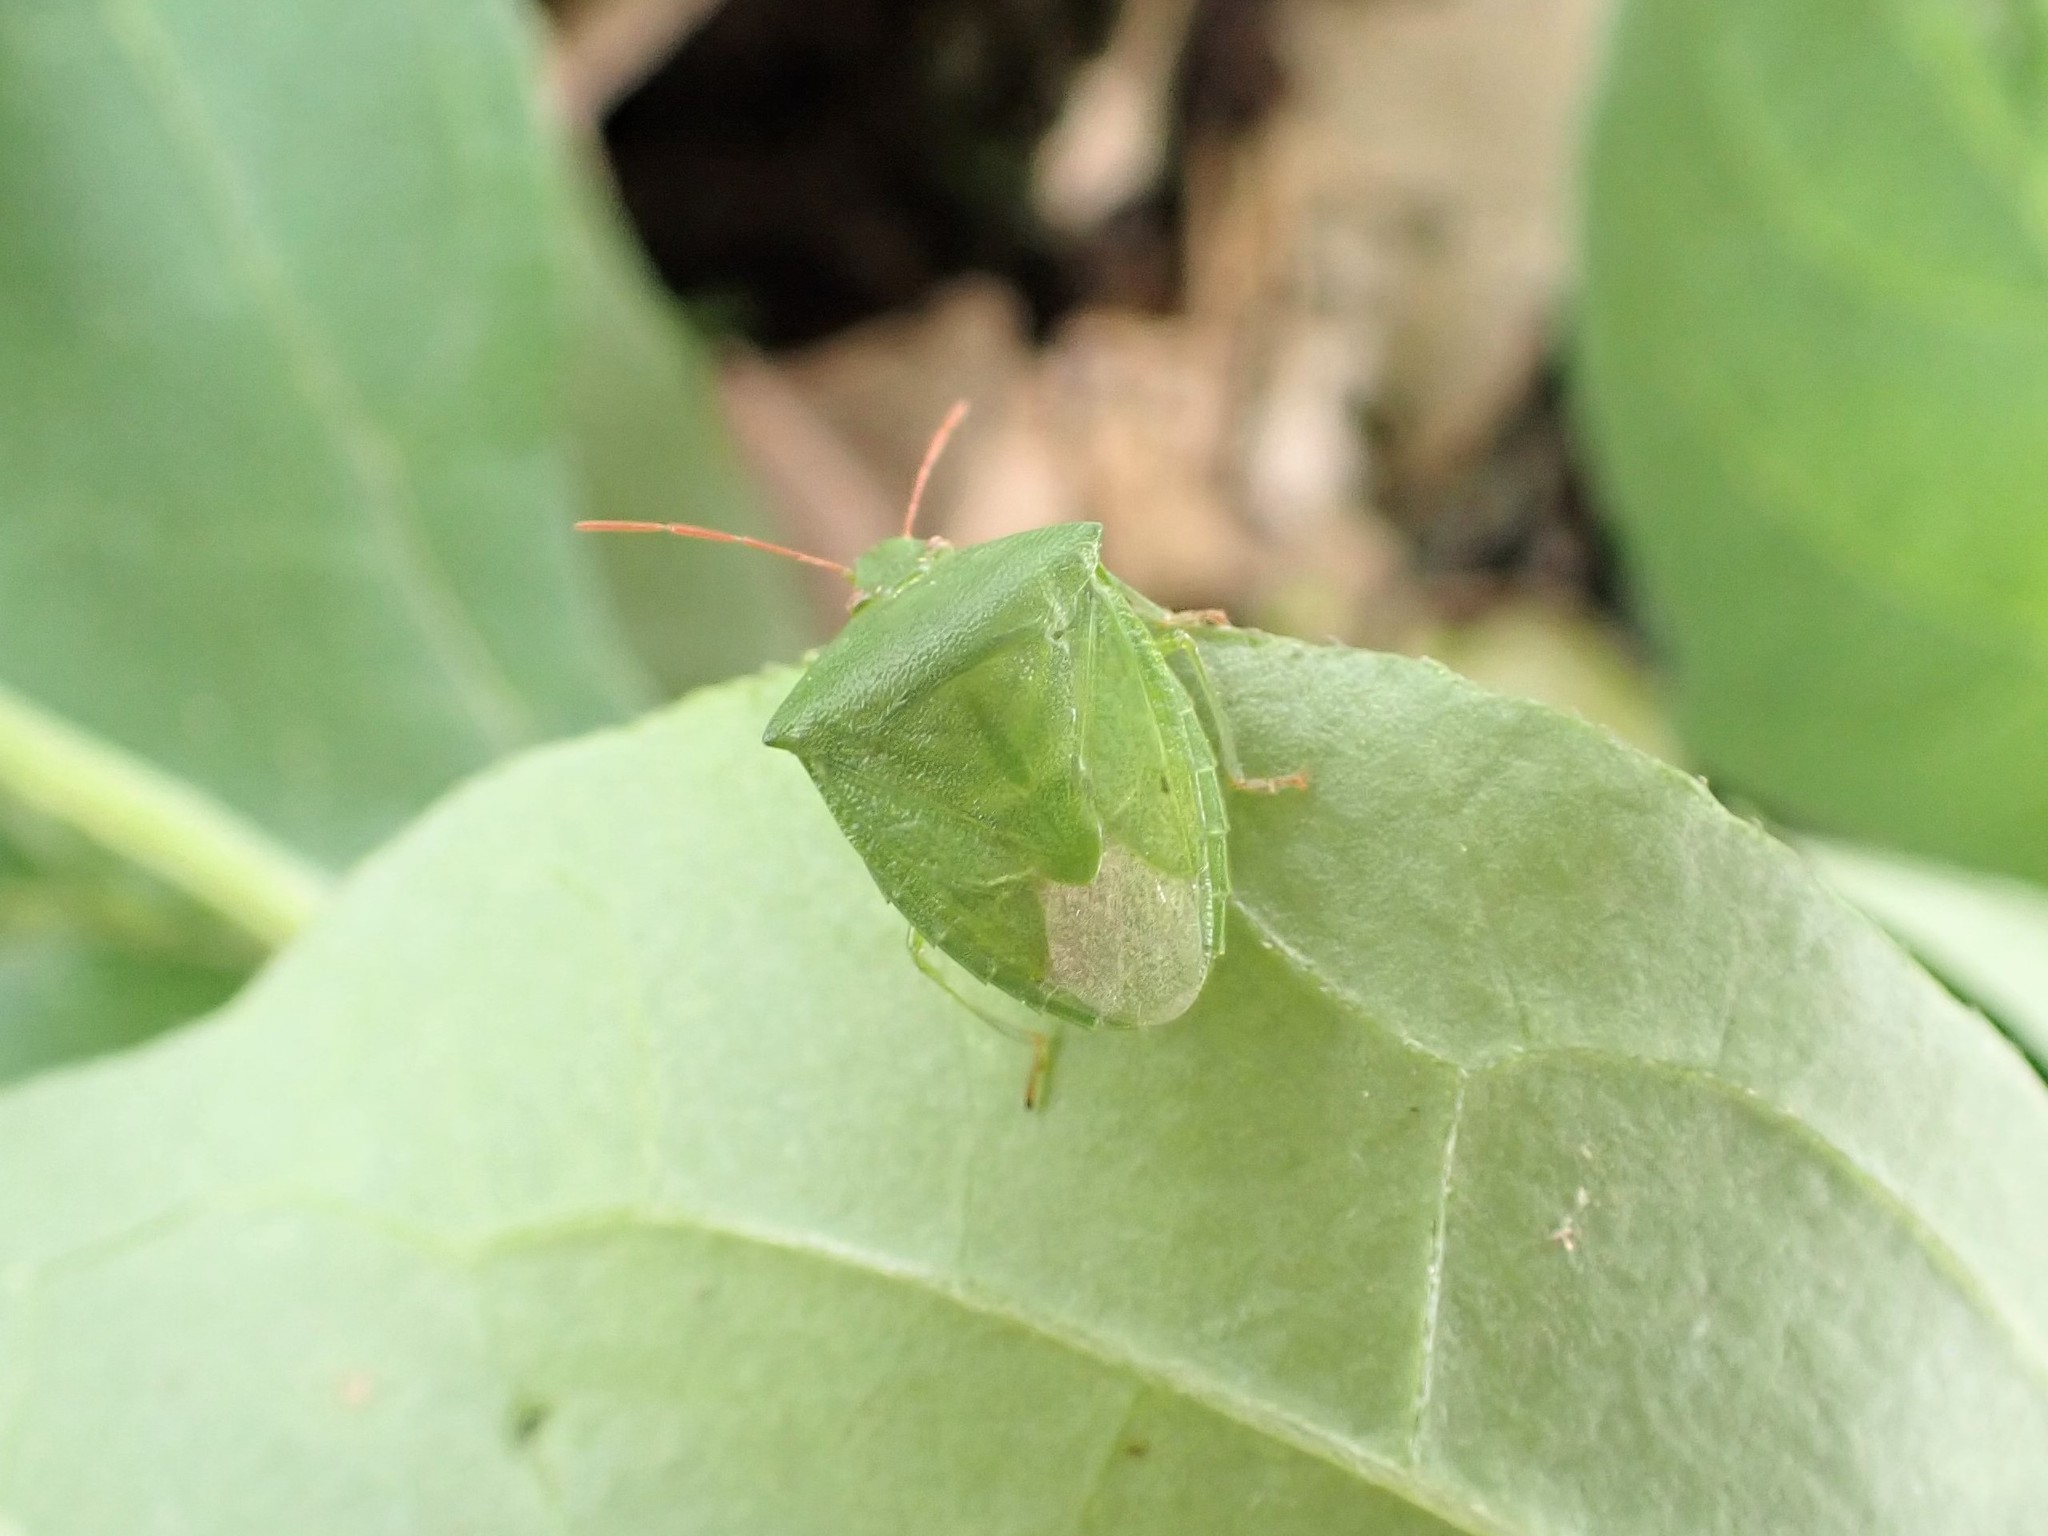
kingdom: Animalia
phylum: Arthropoda
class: Insecta
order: Hemiptera
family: Pentatomidae
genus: Cuspicona
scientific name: Cuspicona simplex
